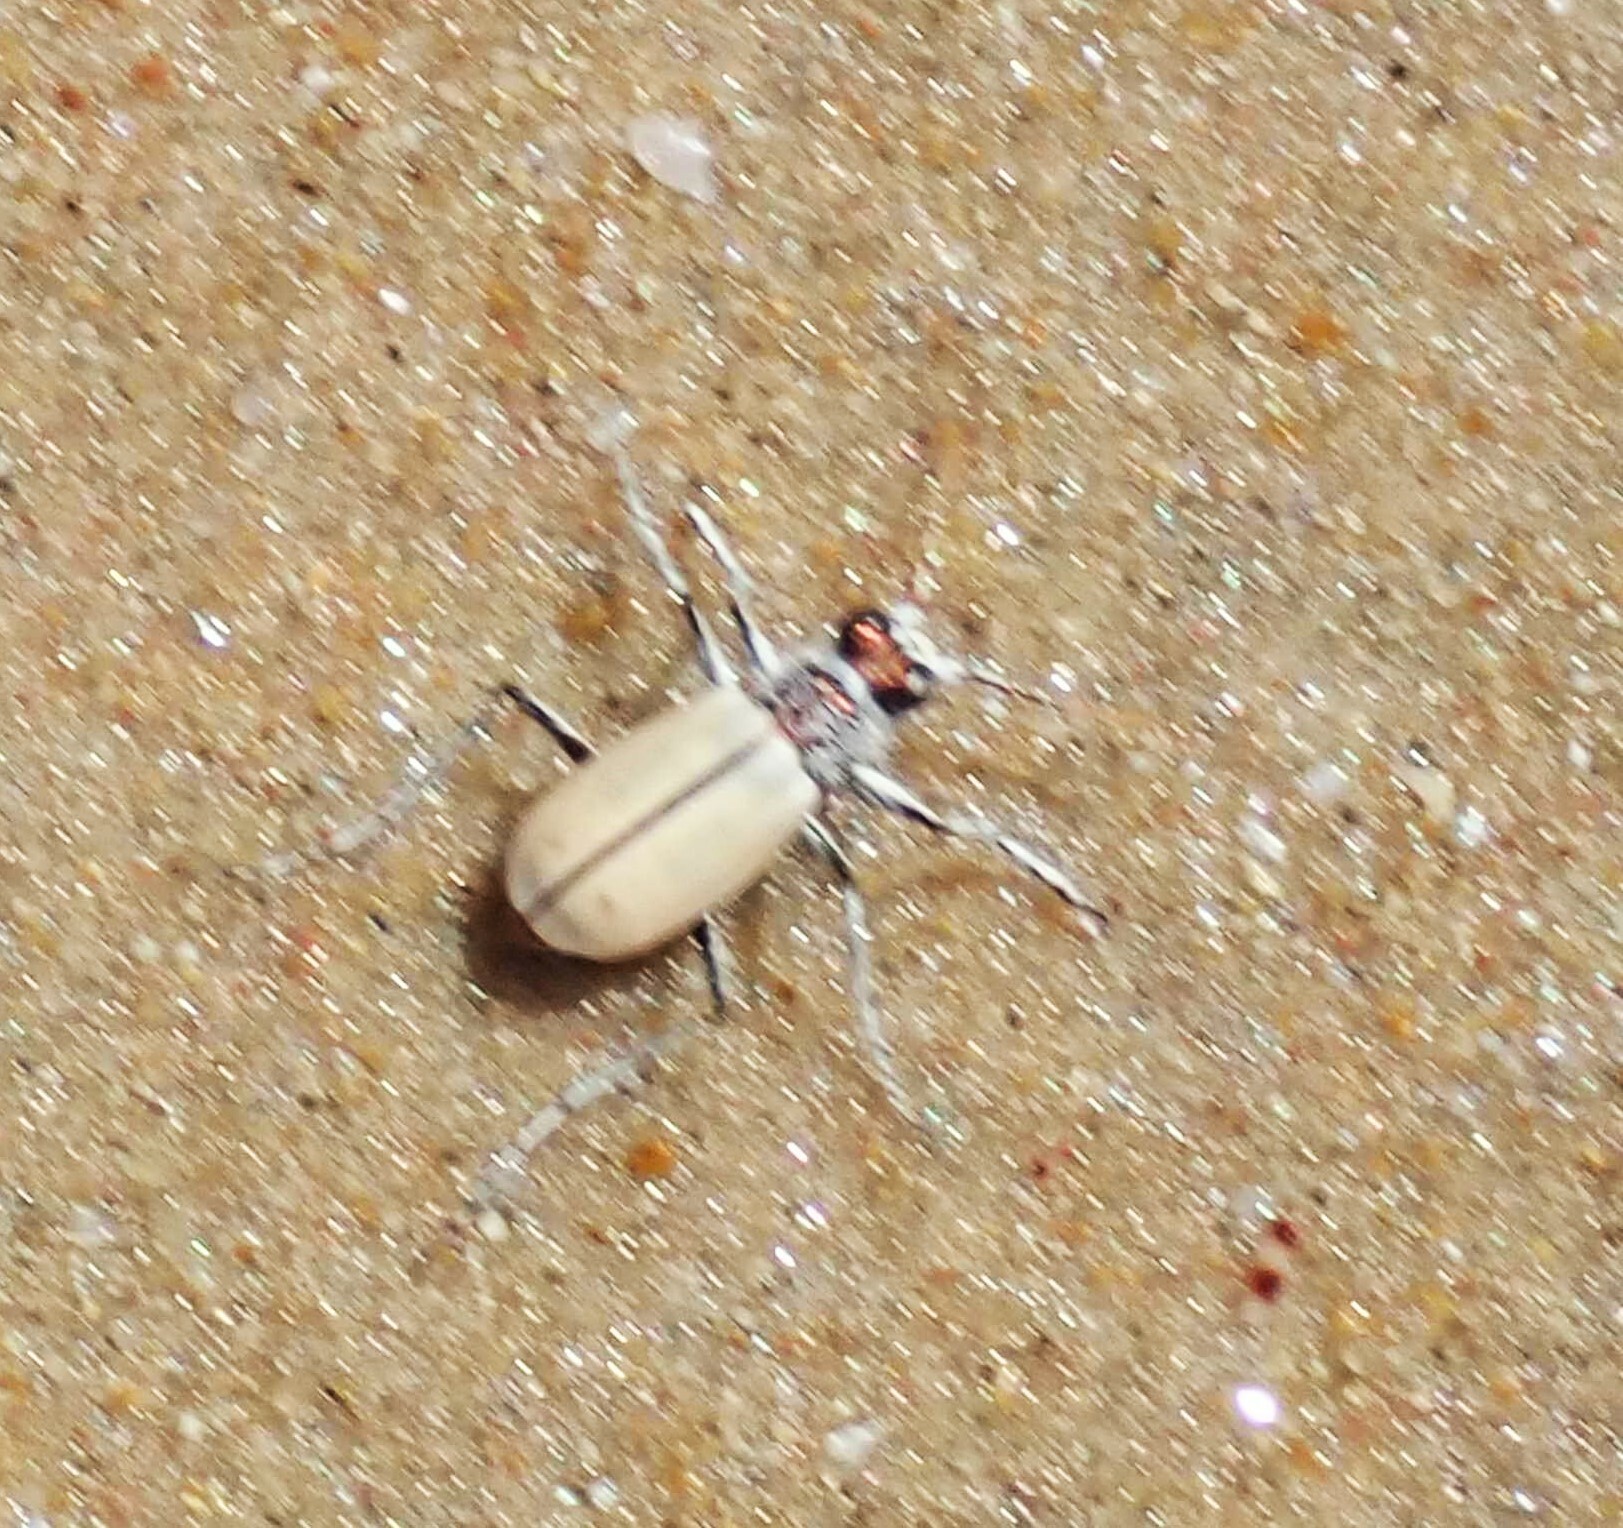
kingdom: Animalia
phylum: Arthropoda
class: Insecta
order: Coleoptera
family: Carabidae
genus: Lophyra
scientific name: Lophyra barbifrons
